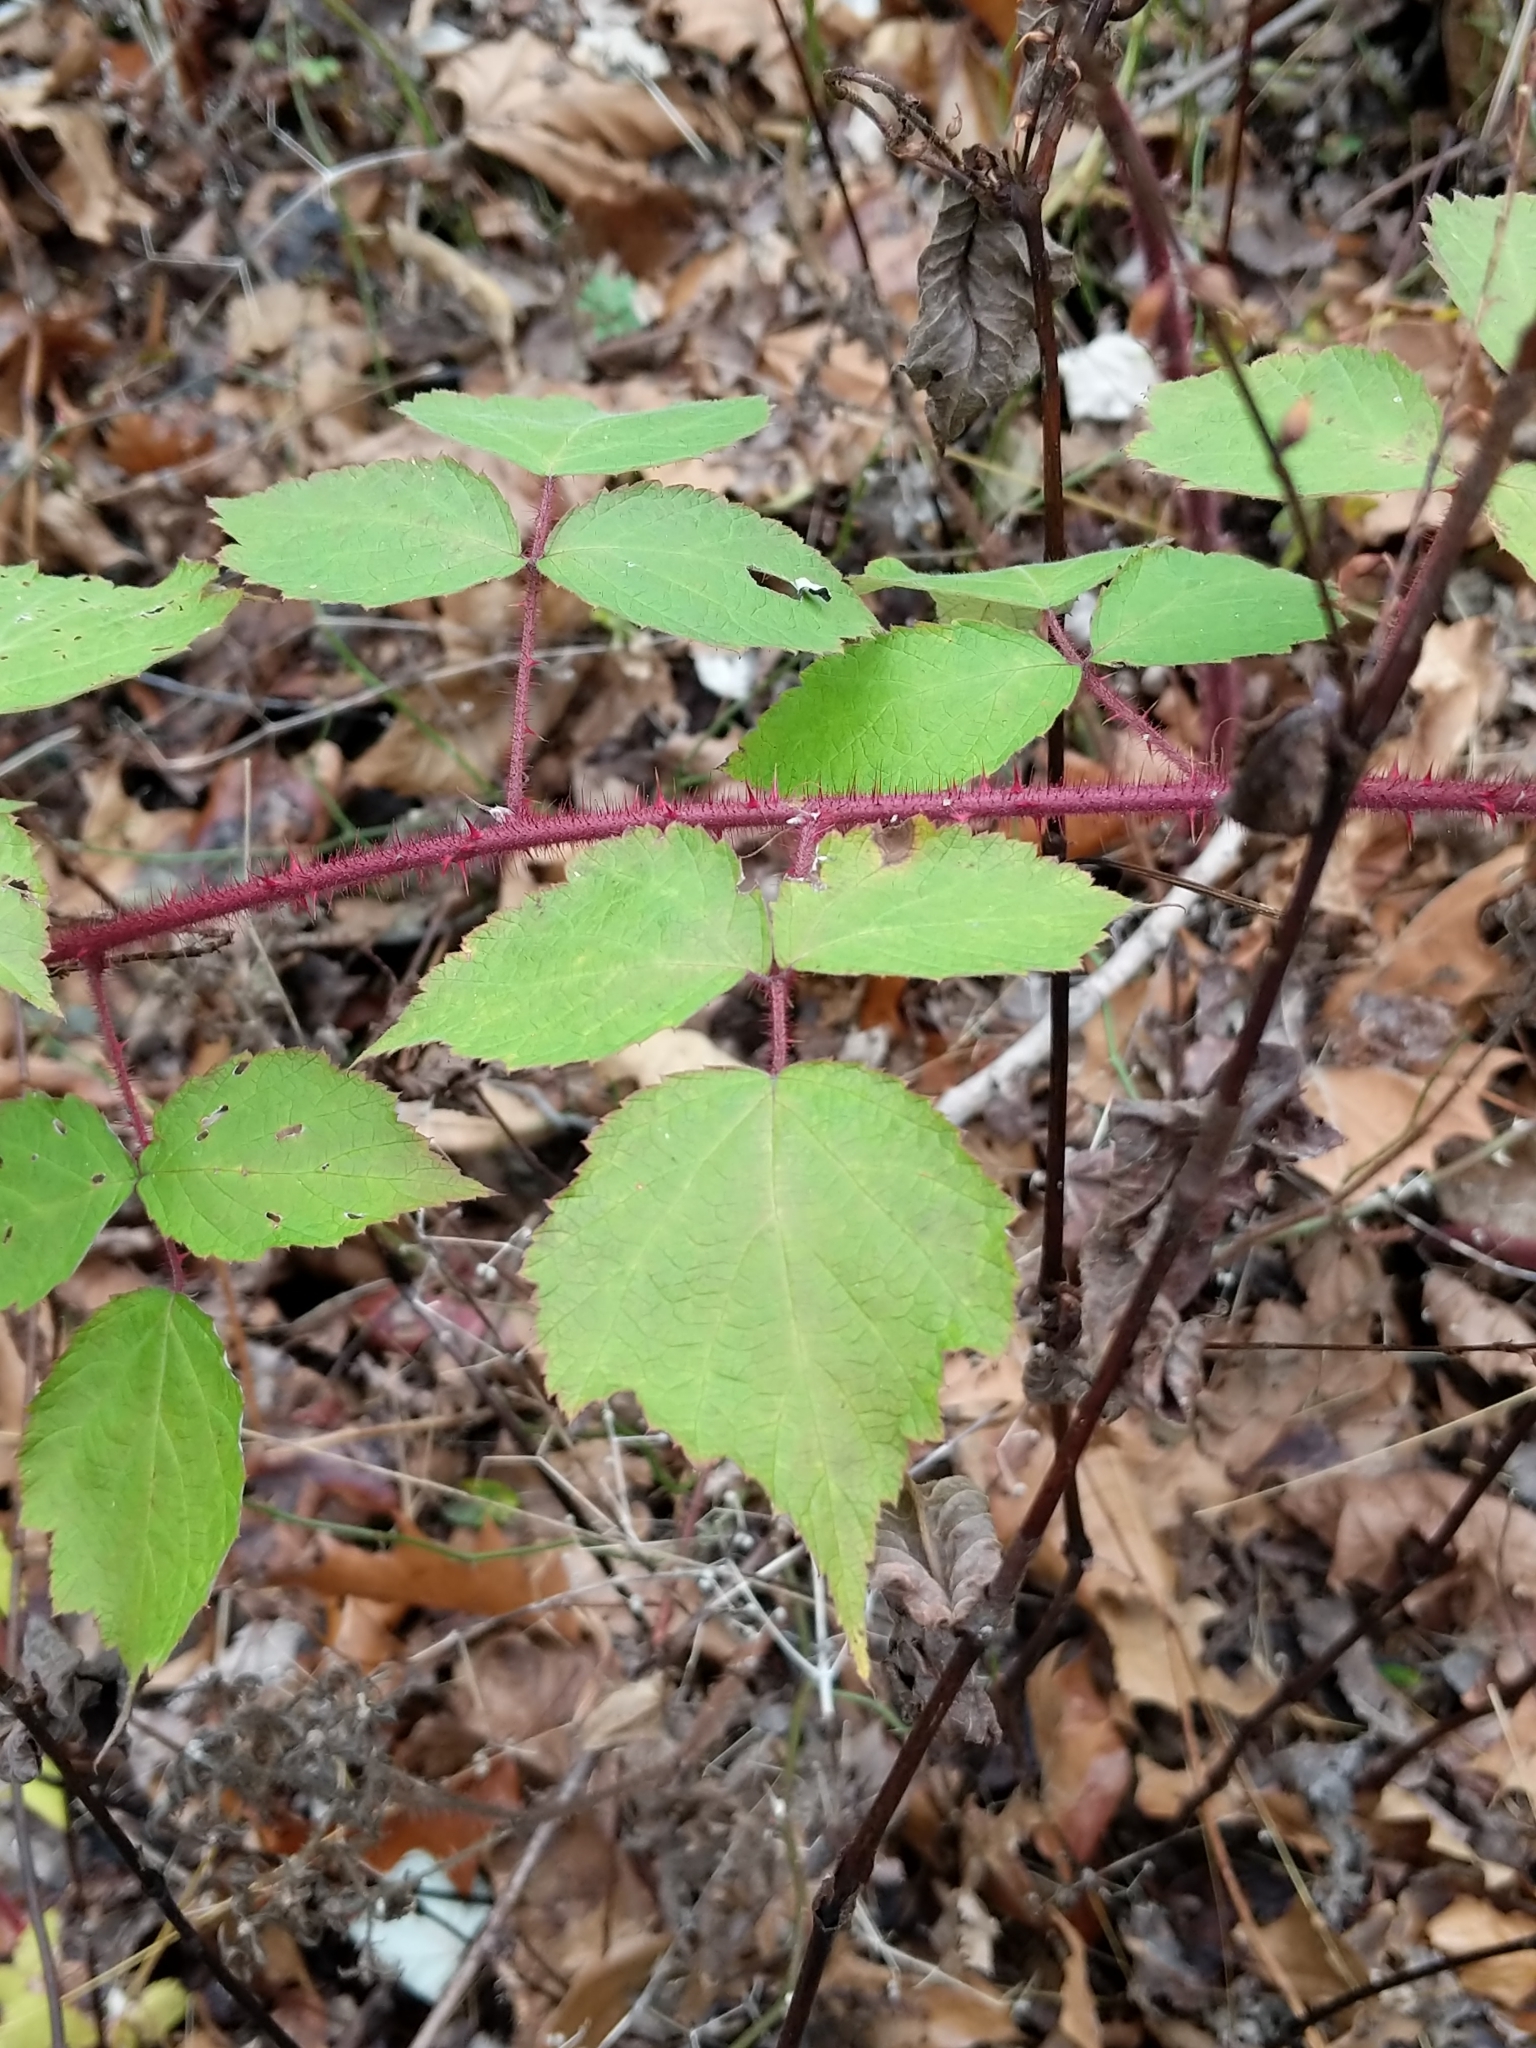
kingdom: Plantae
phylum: Tracheophyta
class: Magnoliopsida
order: Rosales
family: Rosaceae
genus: Rubus
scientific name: Rubus phoenicolasius
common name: Japanese wineberry
